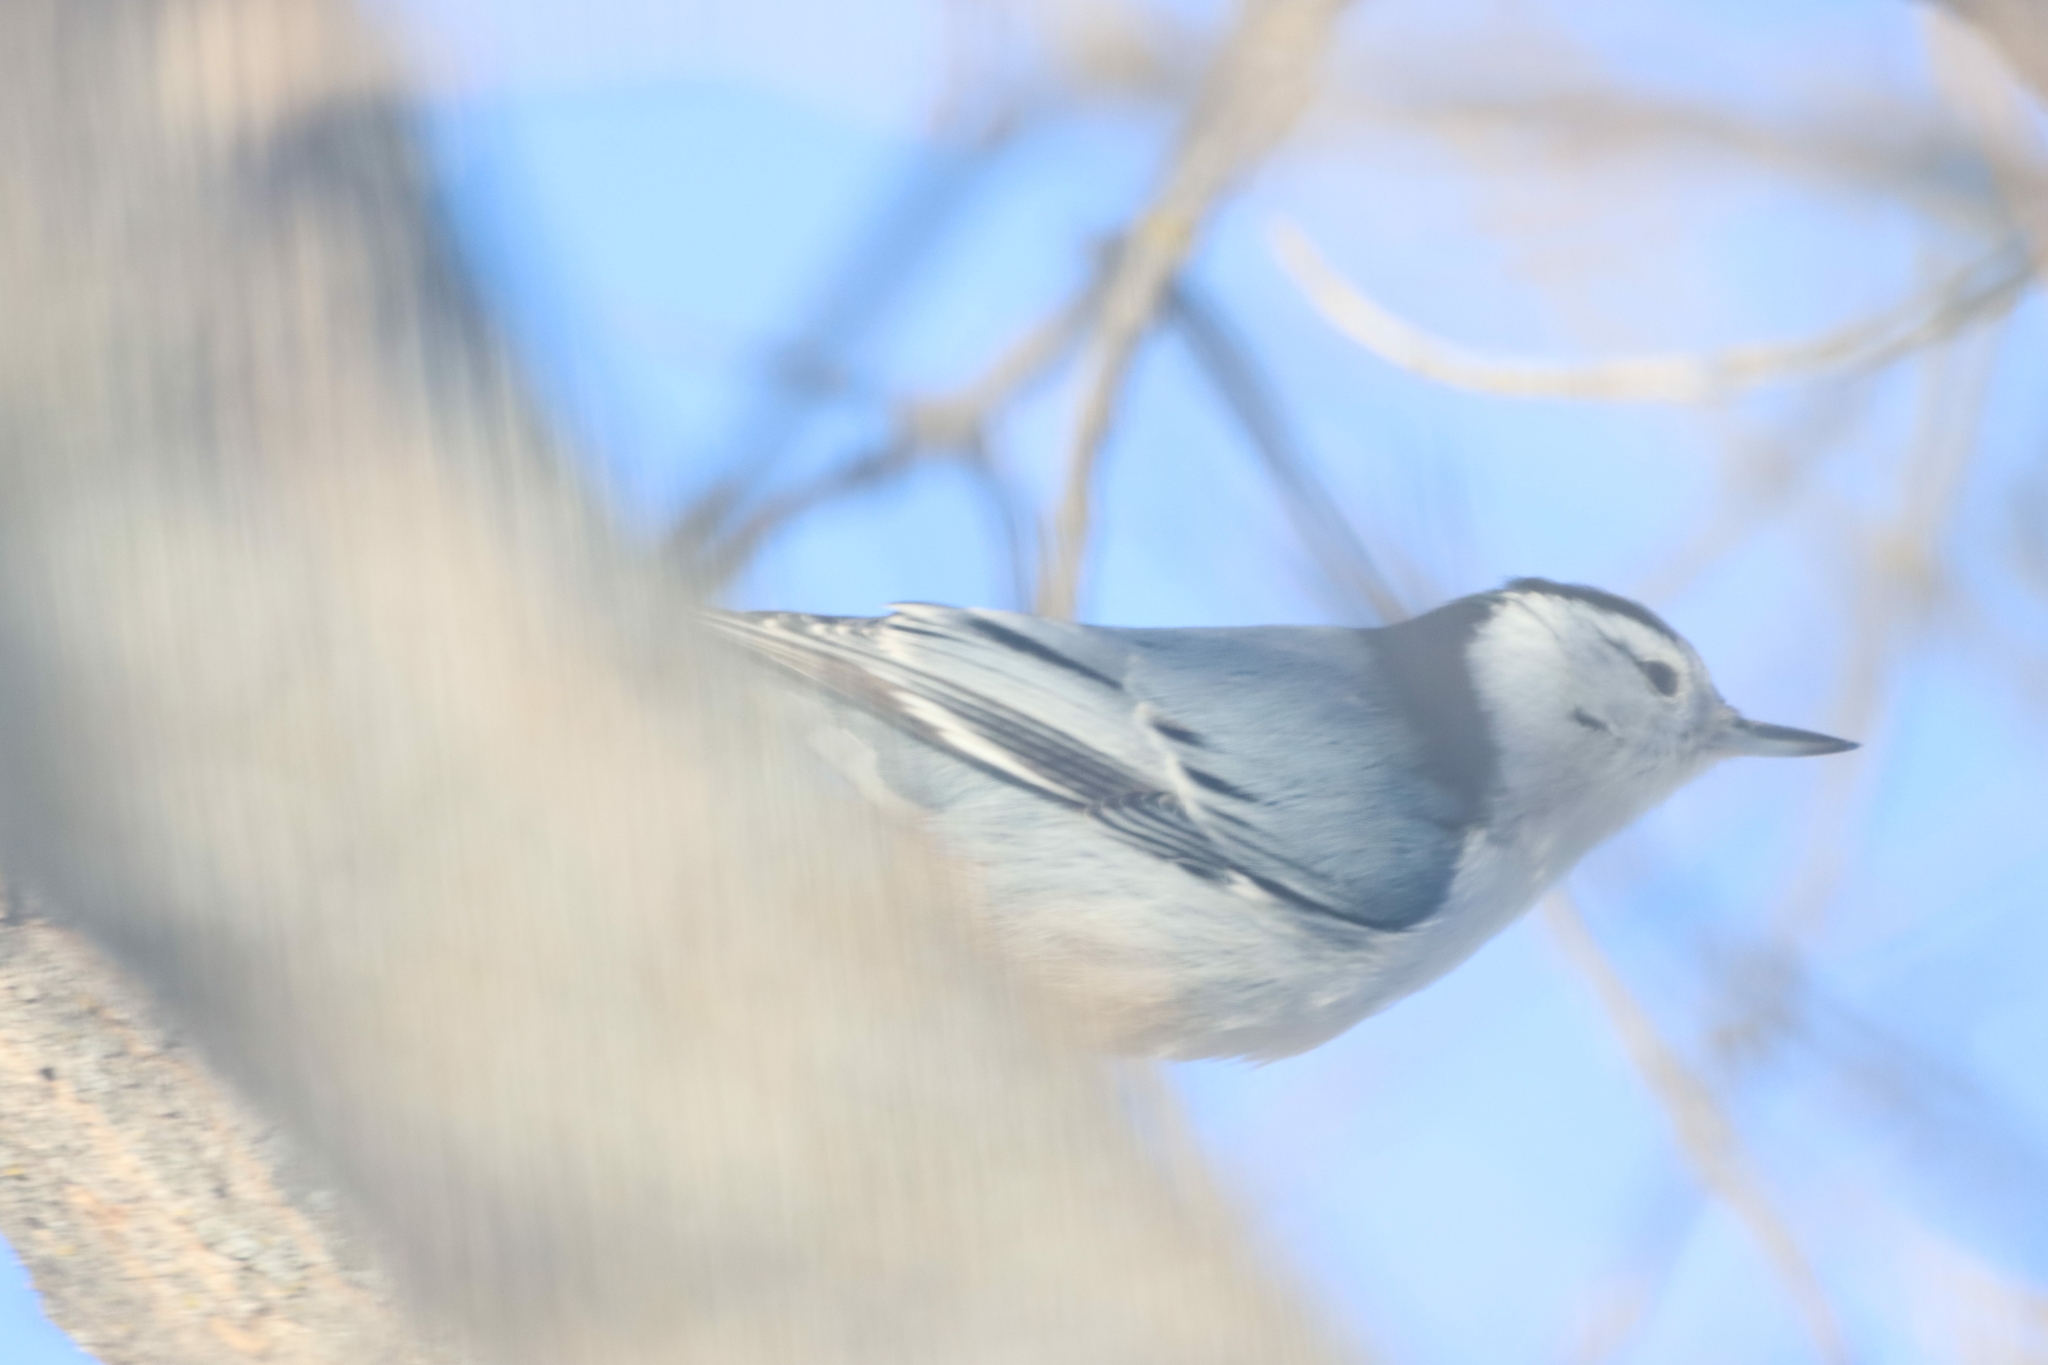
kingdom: Animalia
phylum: Chordata
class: Aves
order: Passeriformes
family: Sittidae
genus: Sitta
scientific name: Sitta carolinensis
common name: White-breasted nuthatch
